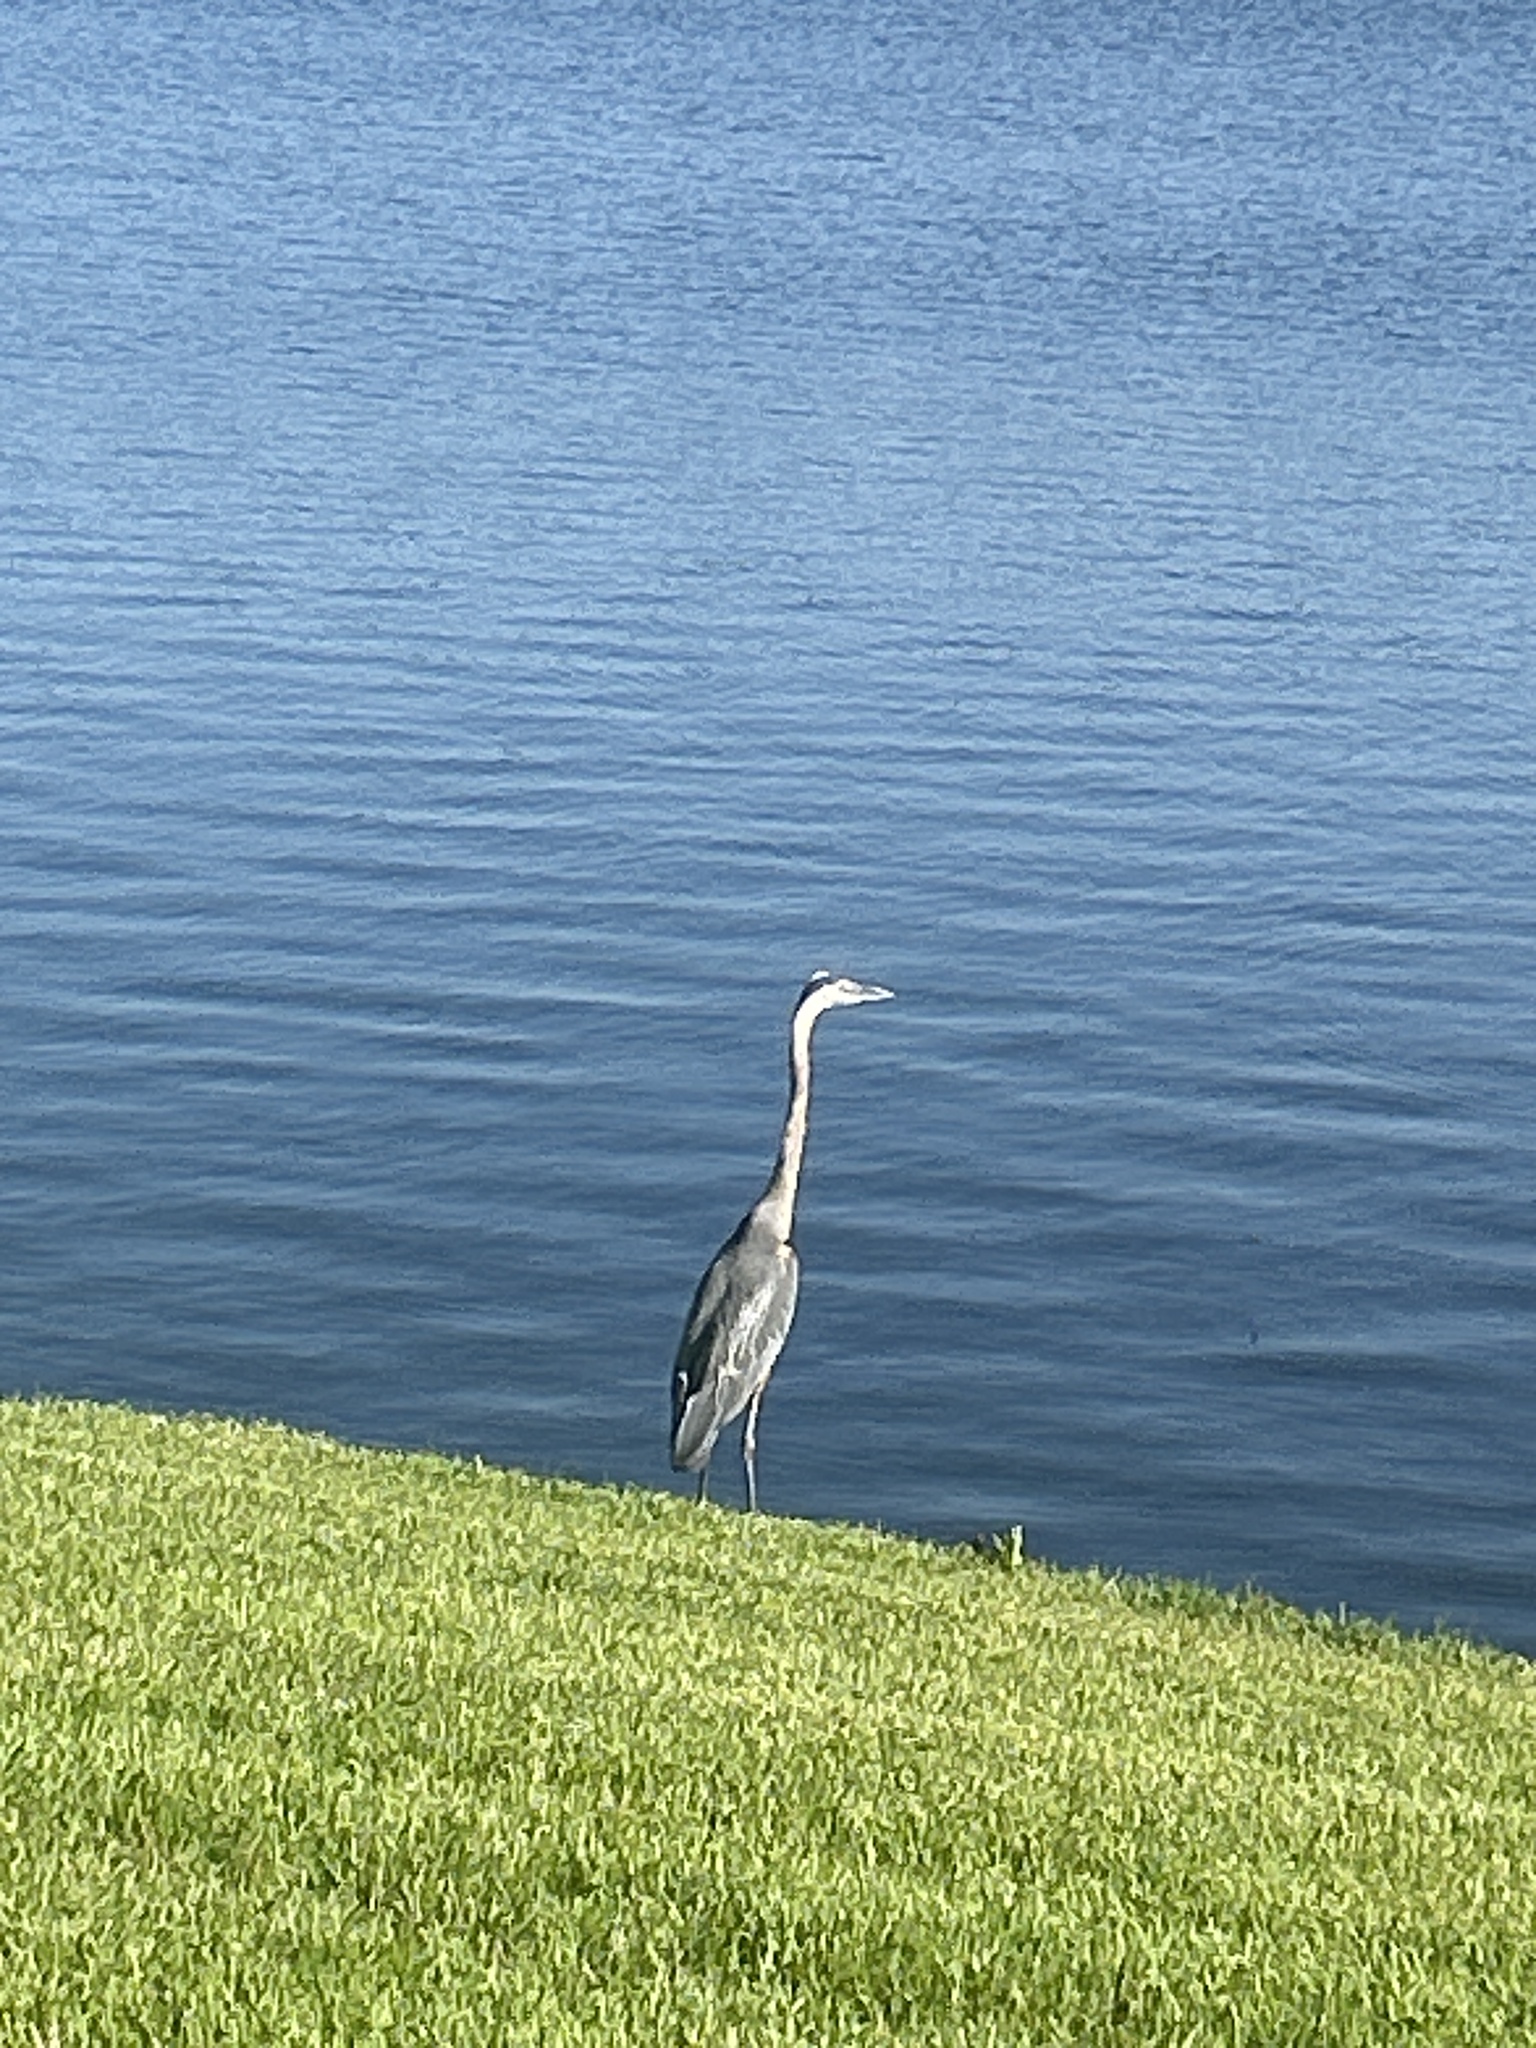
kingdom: Animalia
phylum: Chordata
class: Aves
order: Pelecaniformes
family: Ardeidae
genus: Ardea
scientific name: Ardea herodias
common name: Great blue heron
